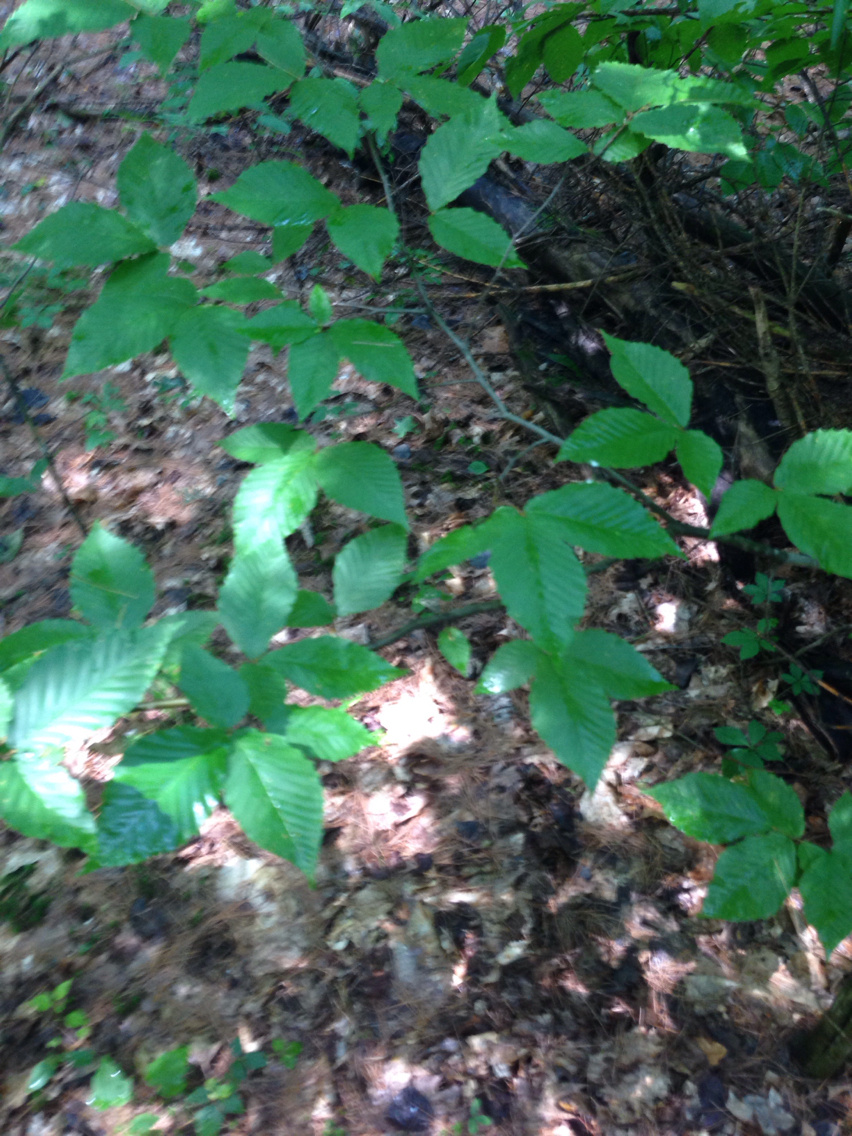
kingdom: Plantae
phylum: Tracheophyta
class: Magnoliopsida
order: Fagales
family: Fagaceae
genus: Fagus
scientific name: Fagus grandifolia
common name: American beech
